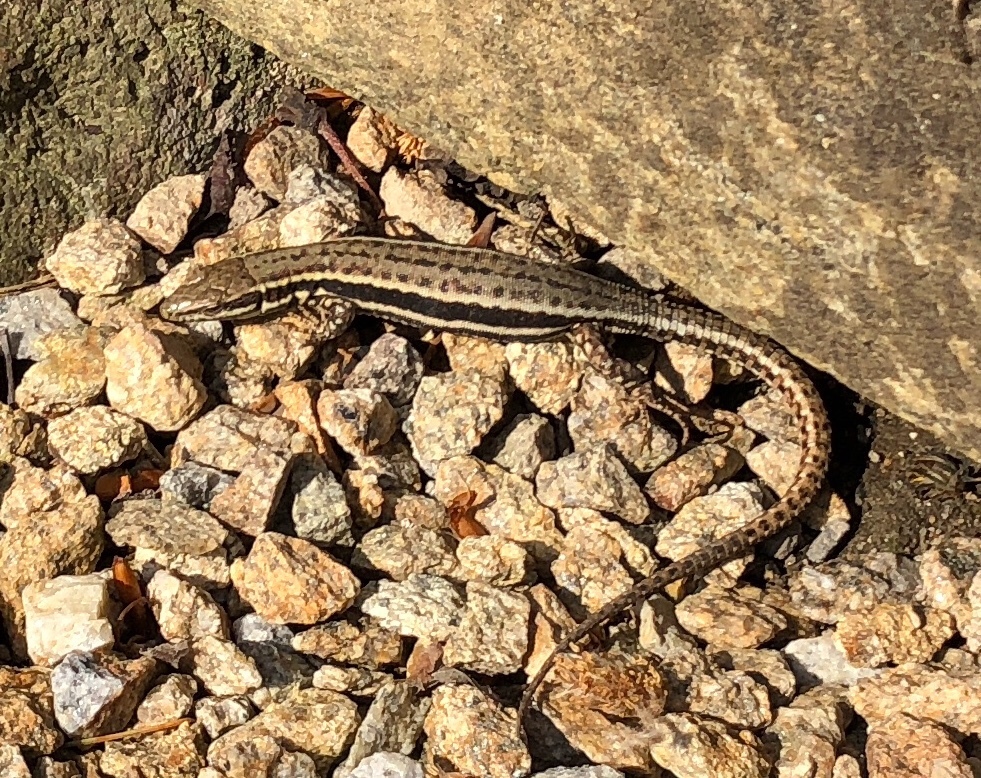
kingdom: Animalia
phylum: Chordata
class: Squamata
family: Lacertidae
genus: Podarcis
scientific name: Podarcis muralis
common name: Common wall lizard
